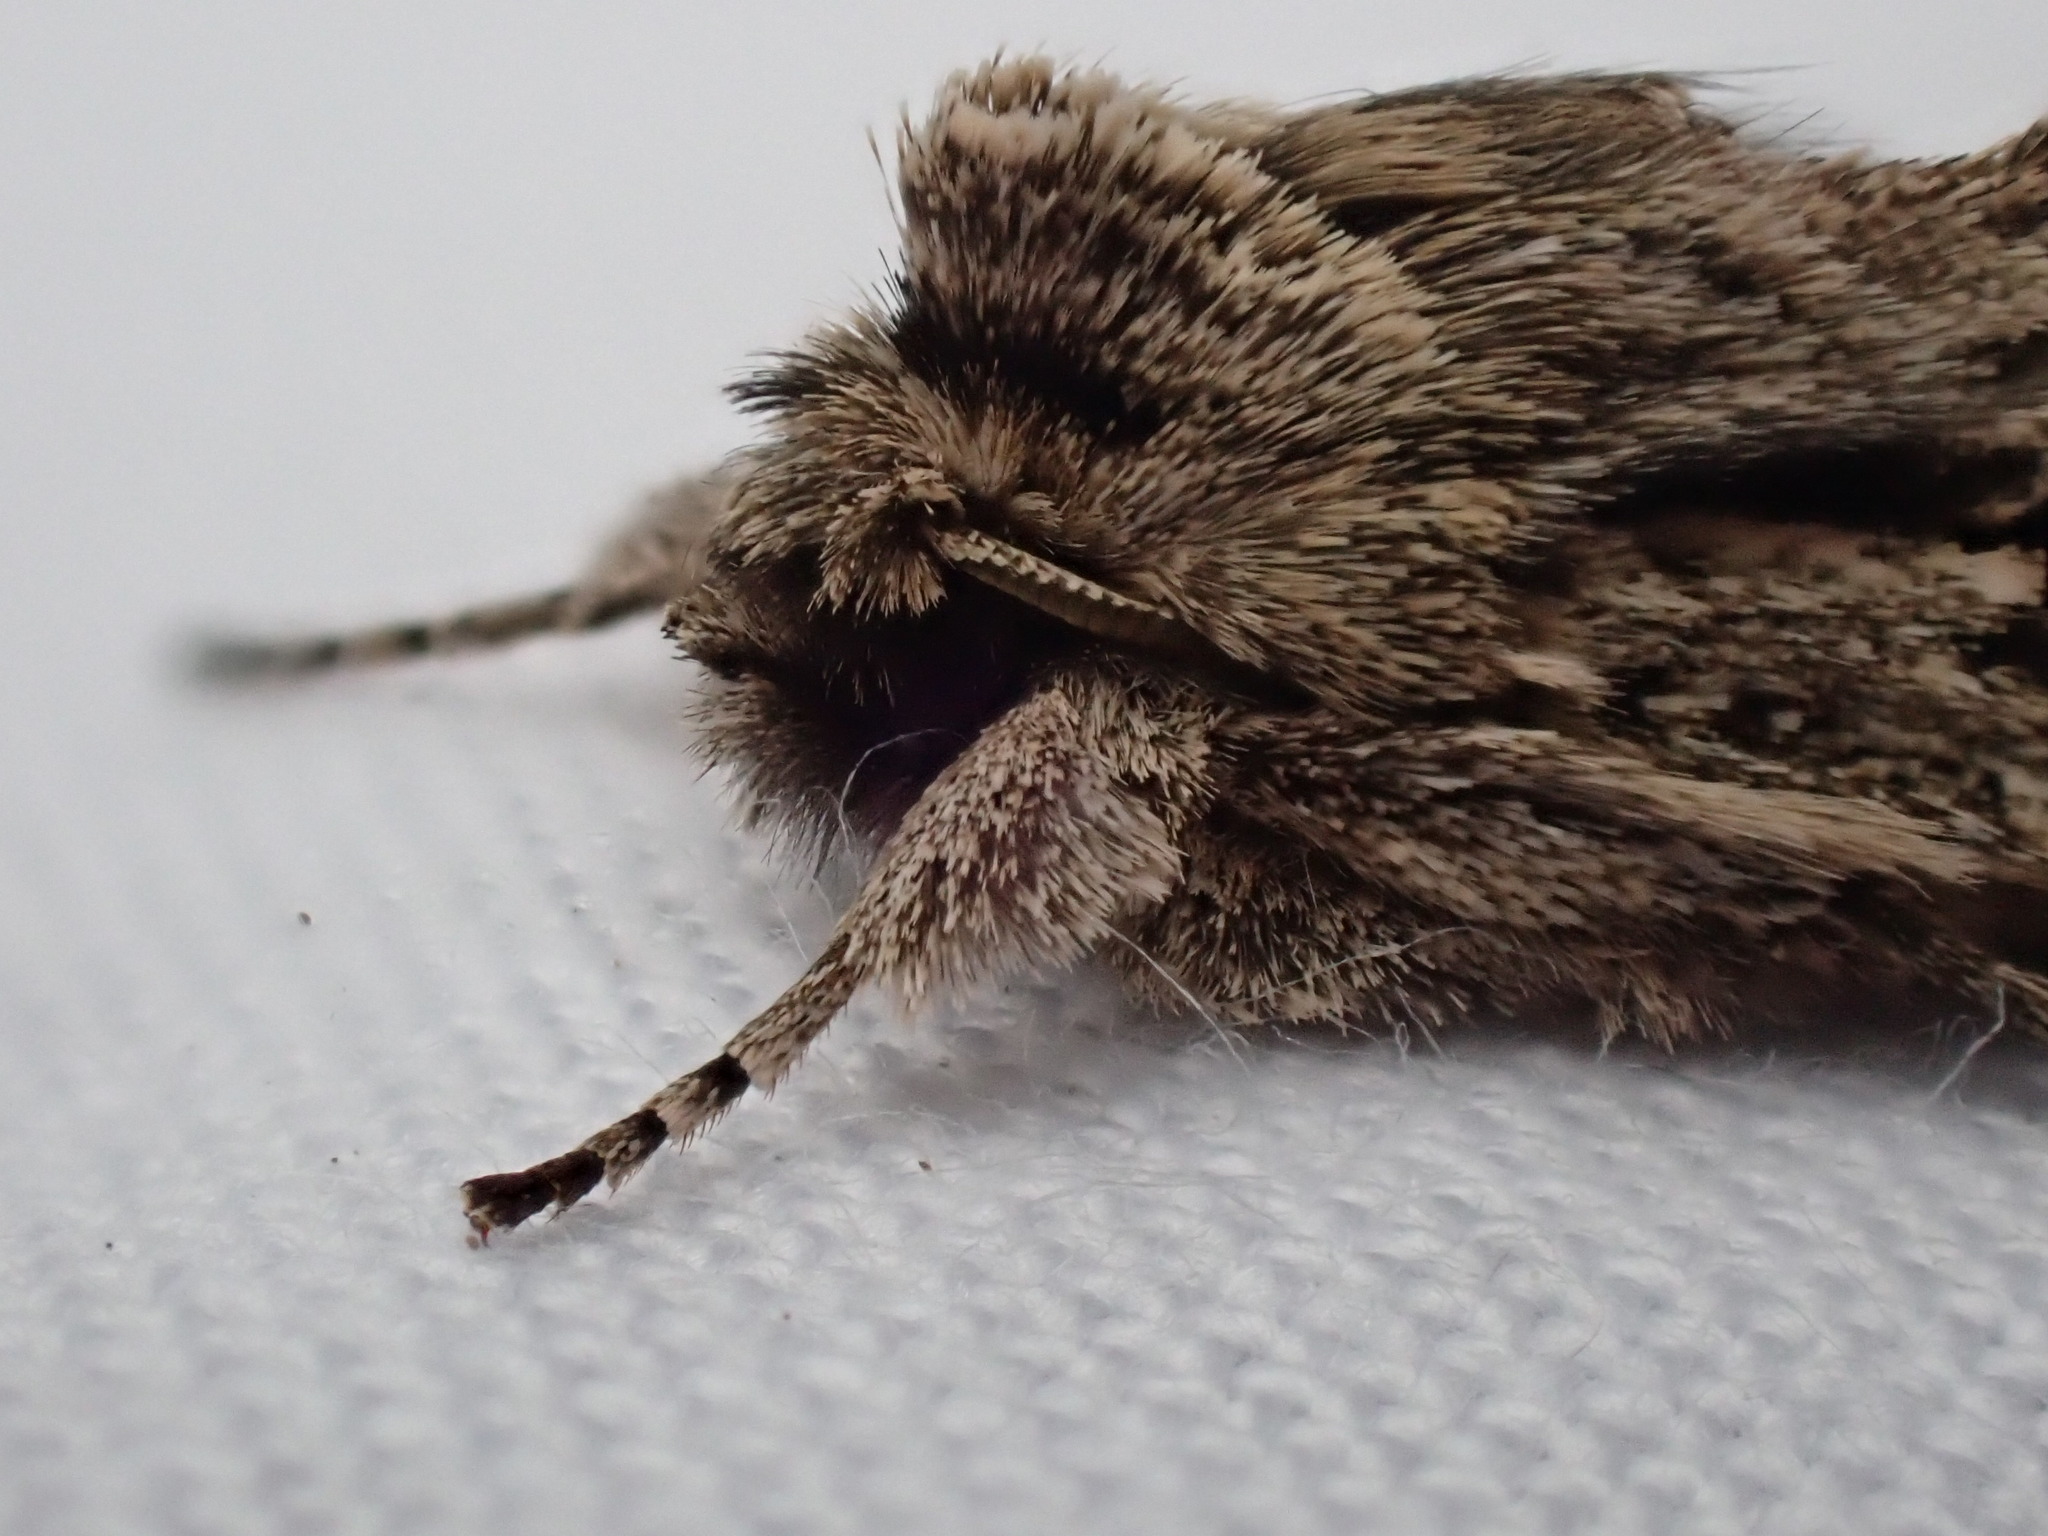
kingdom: Animalia
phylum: Arthropoda
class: Insecta
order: Lepidoptera
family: Noctuidae
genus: Xylocampa
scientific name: Xylocampa areola
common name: Early grey
